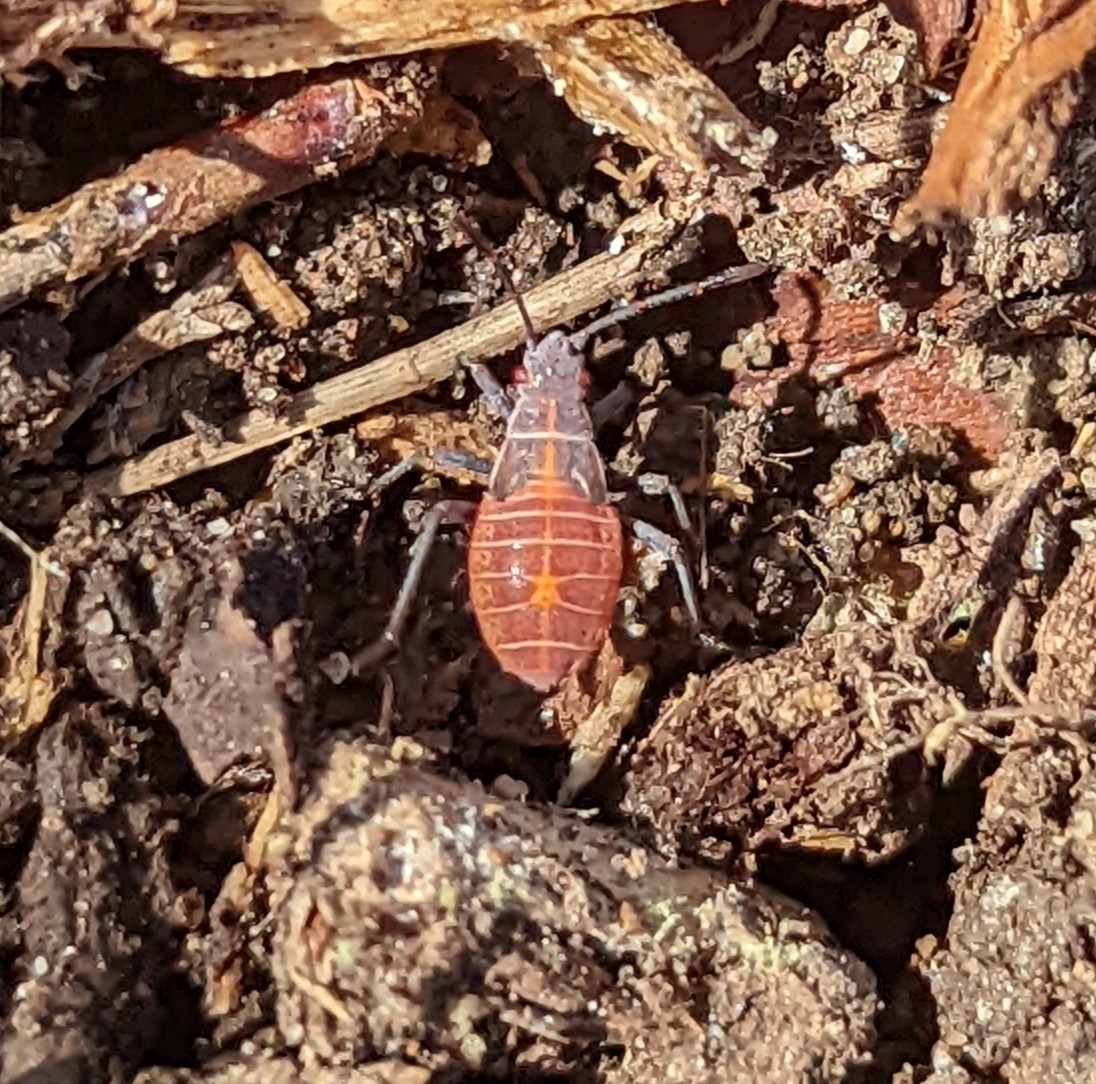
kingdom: Animalia
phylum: Arthropoda
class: Insecta
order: Hemiptera
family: Rhopalidae
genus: Boisea
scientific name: Boisea rubrolineata
